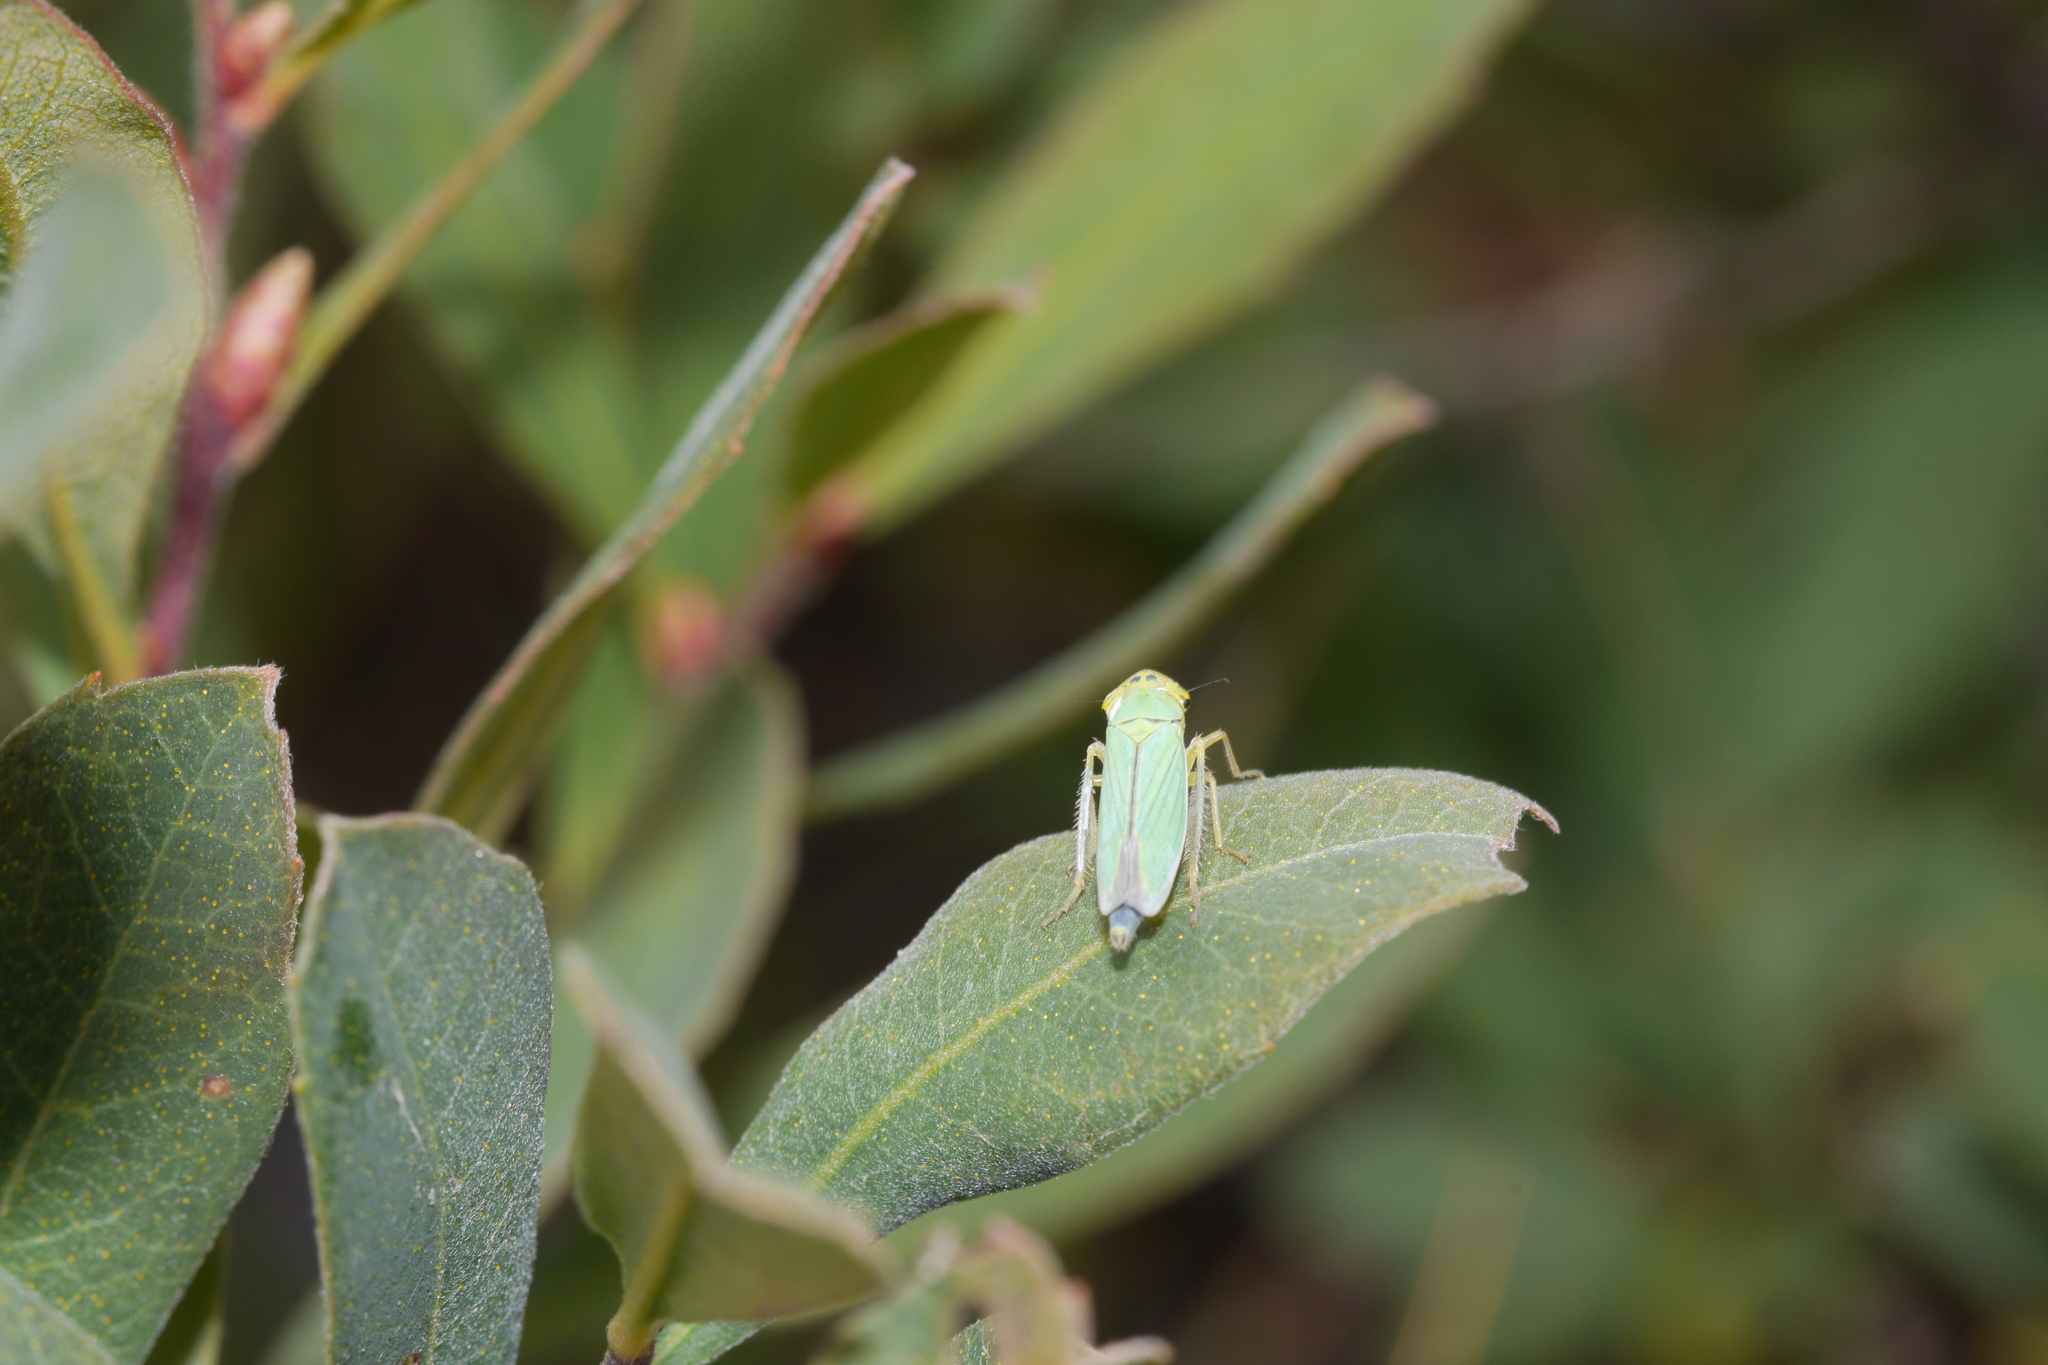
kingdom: Animalia
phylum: Arthropoda
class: Insecta
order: Hemiptera
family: Cicadellidae
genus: Cicadella
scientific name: Cicadella viridis
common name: Leafhopper
